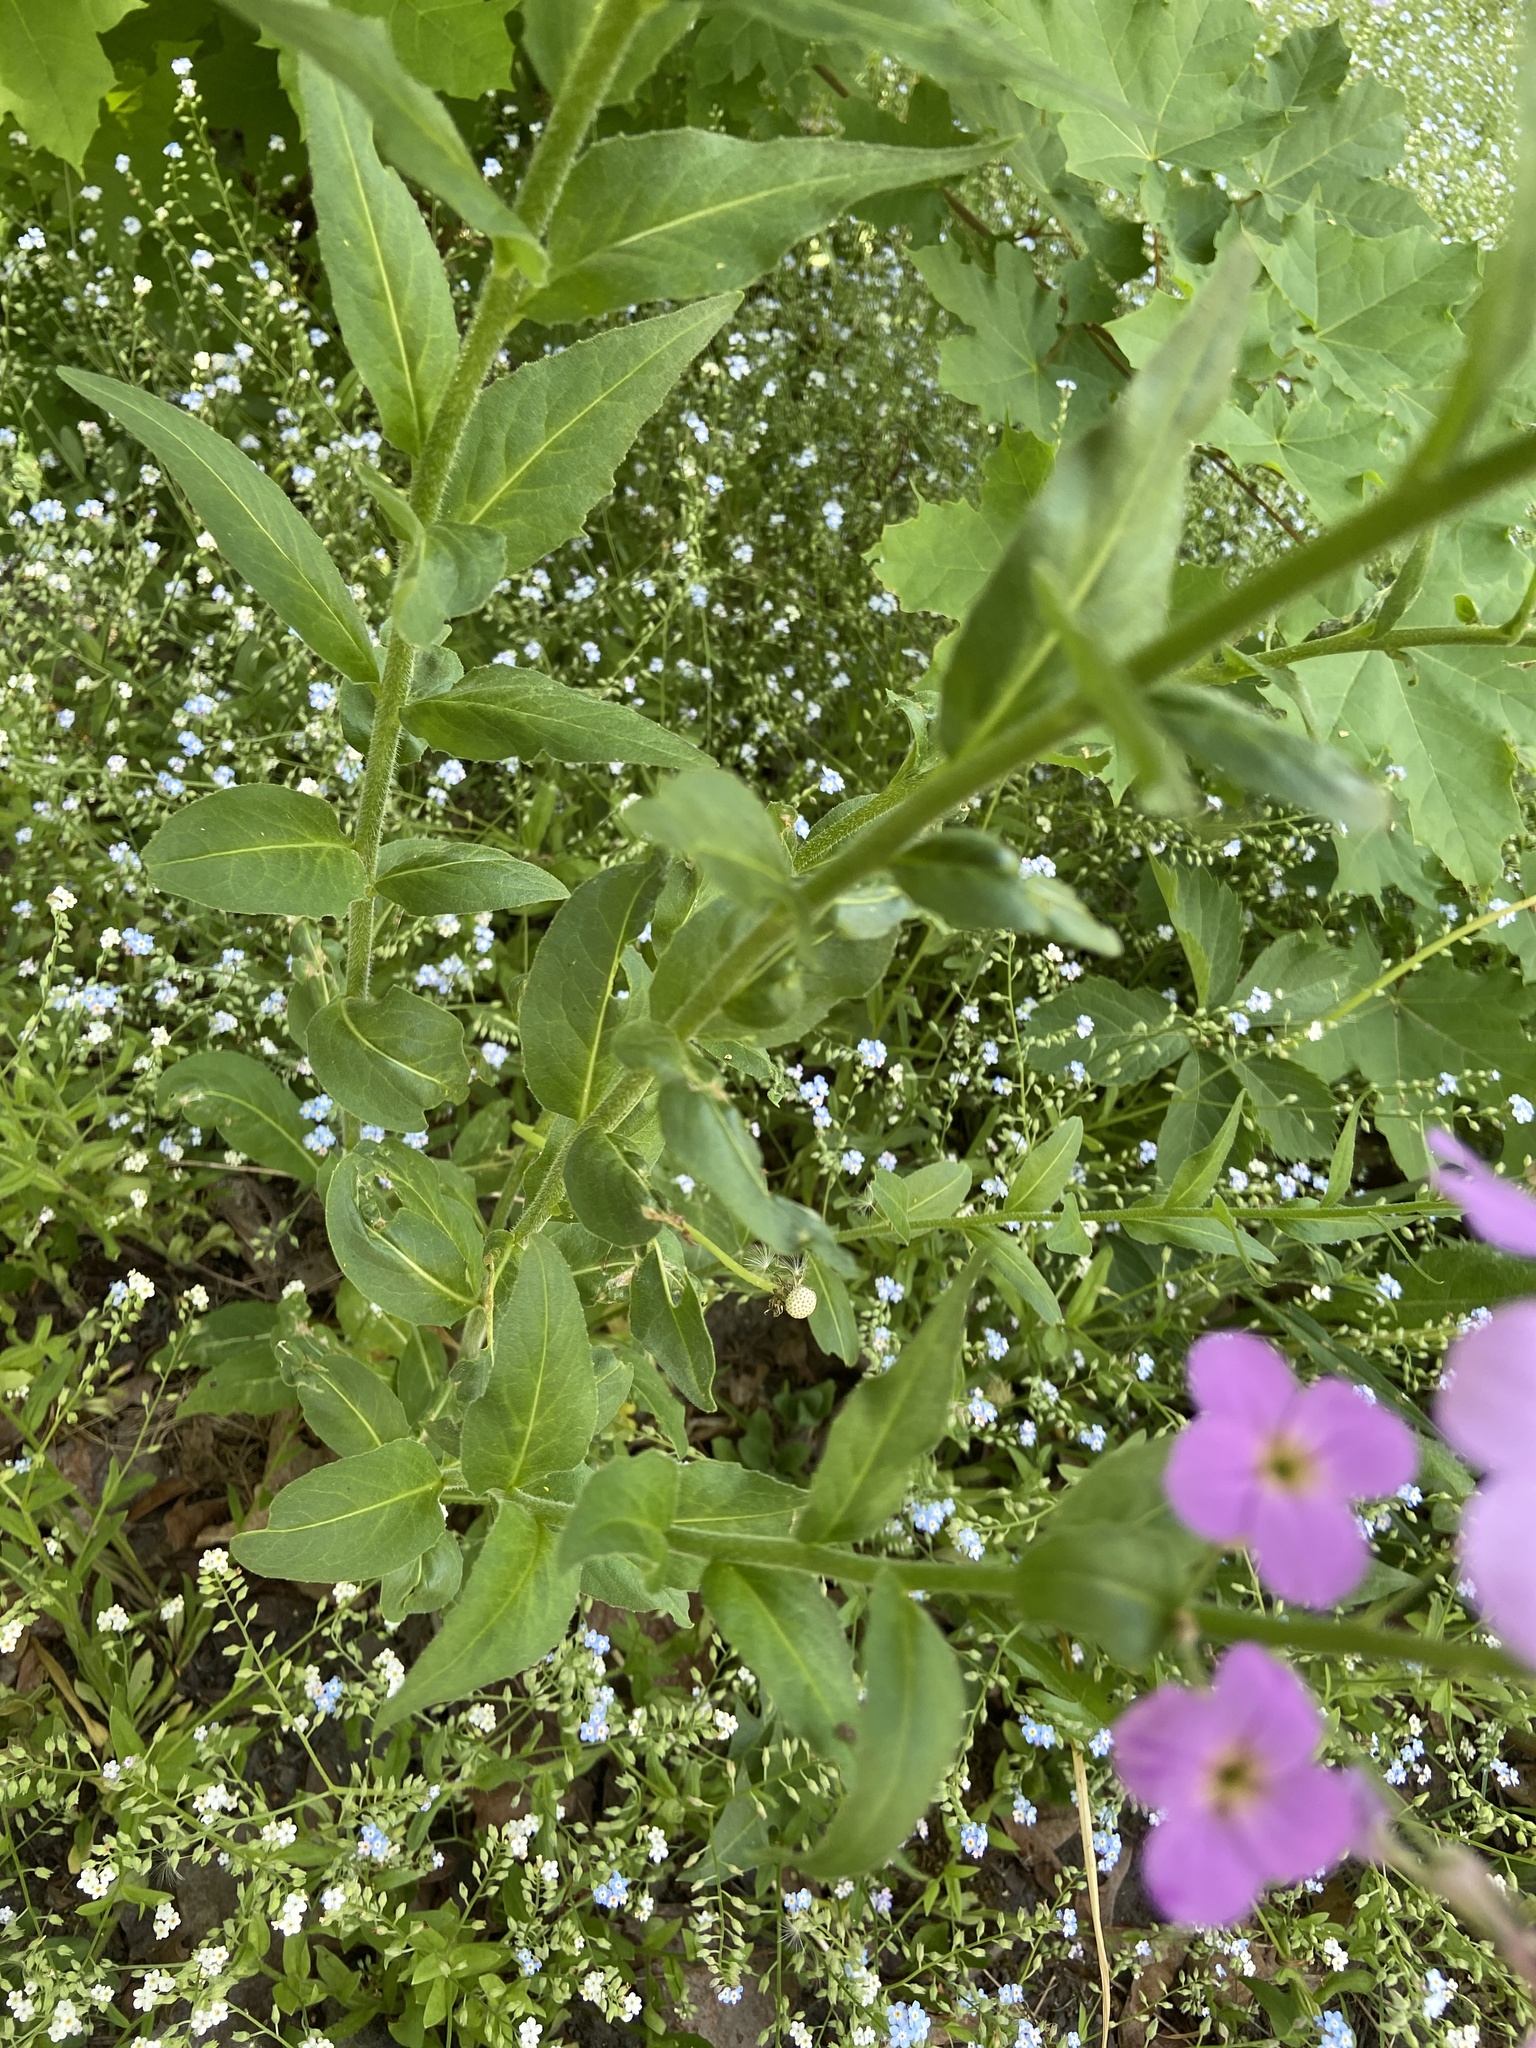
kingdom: Plantae
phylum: Tracheophyta
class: Magnoliopsida
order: Brassicales
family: Brassicaceae
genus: Hesperis
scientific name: Hesperis matronalis
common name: Dame's-violet
